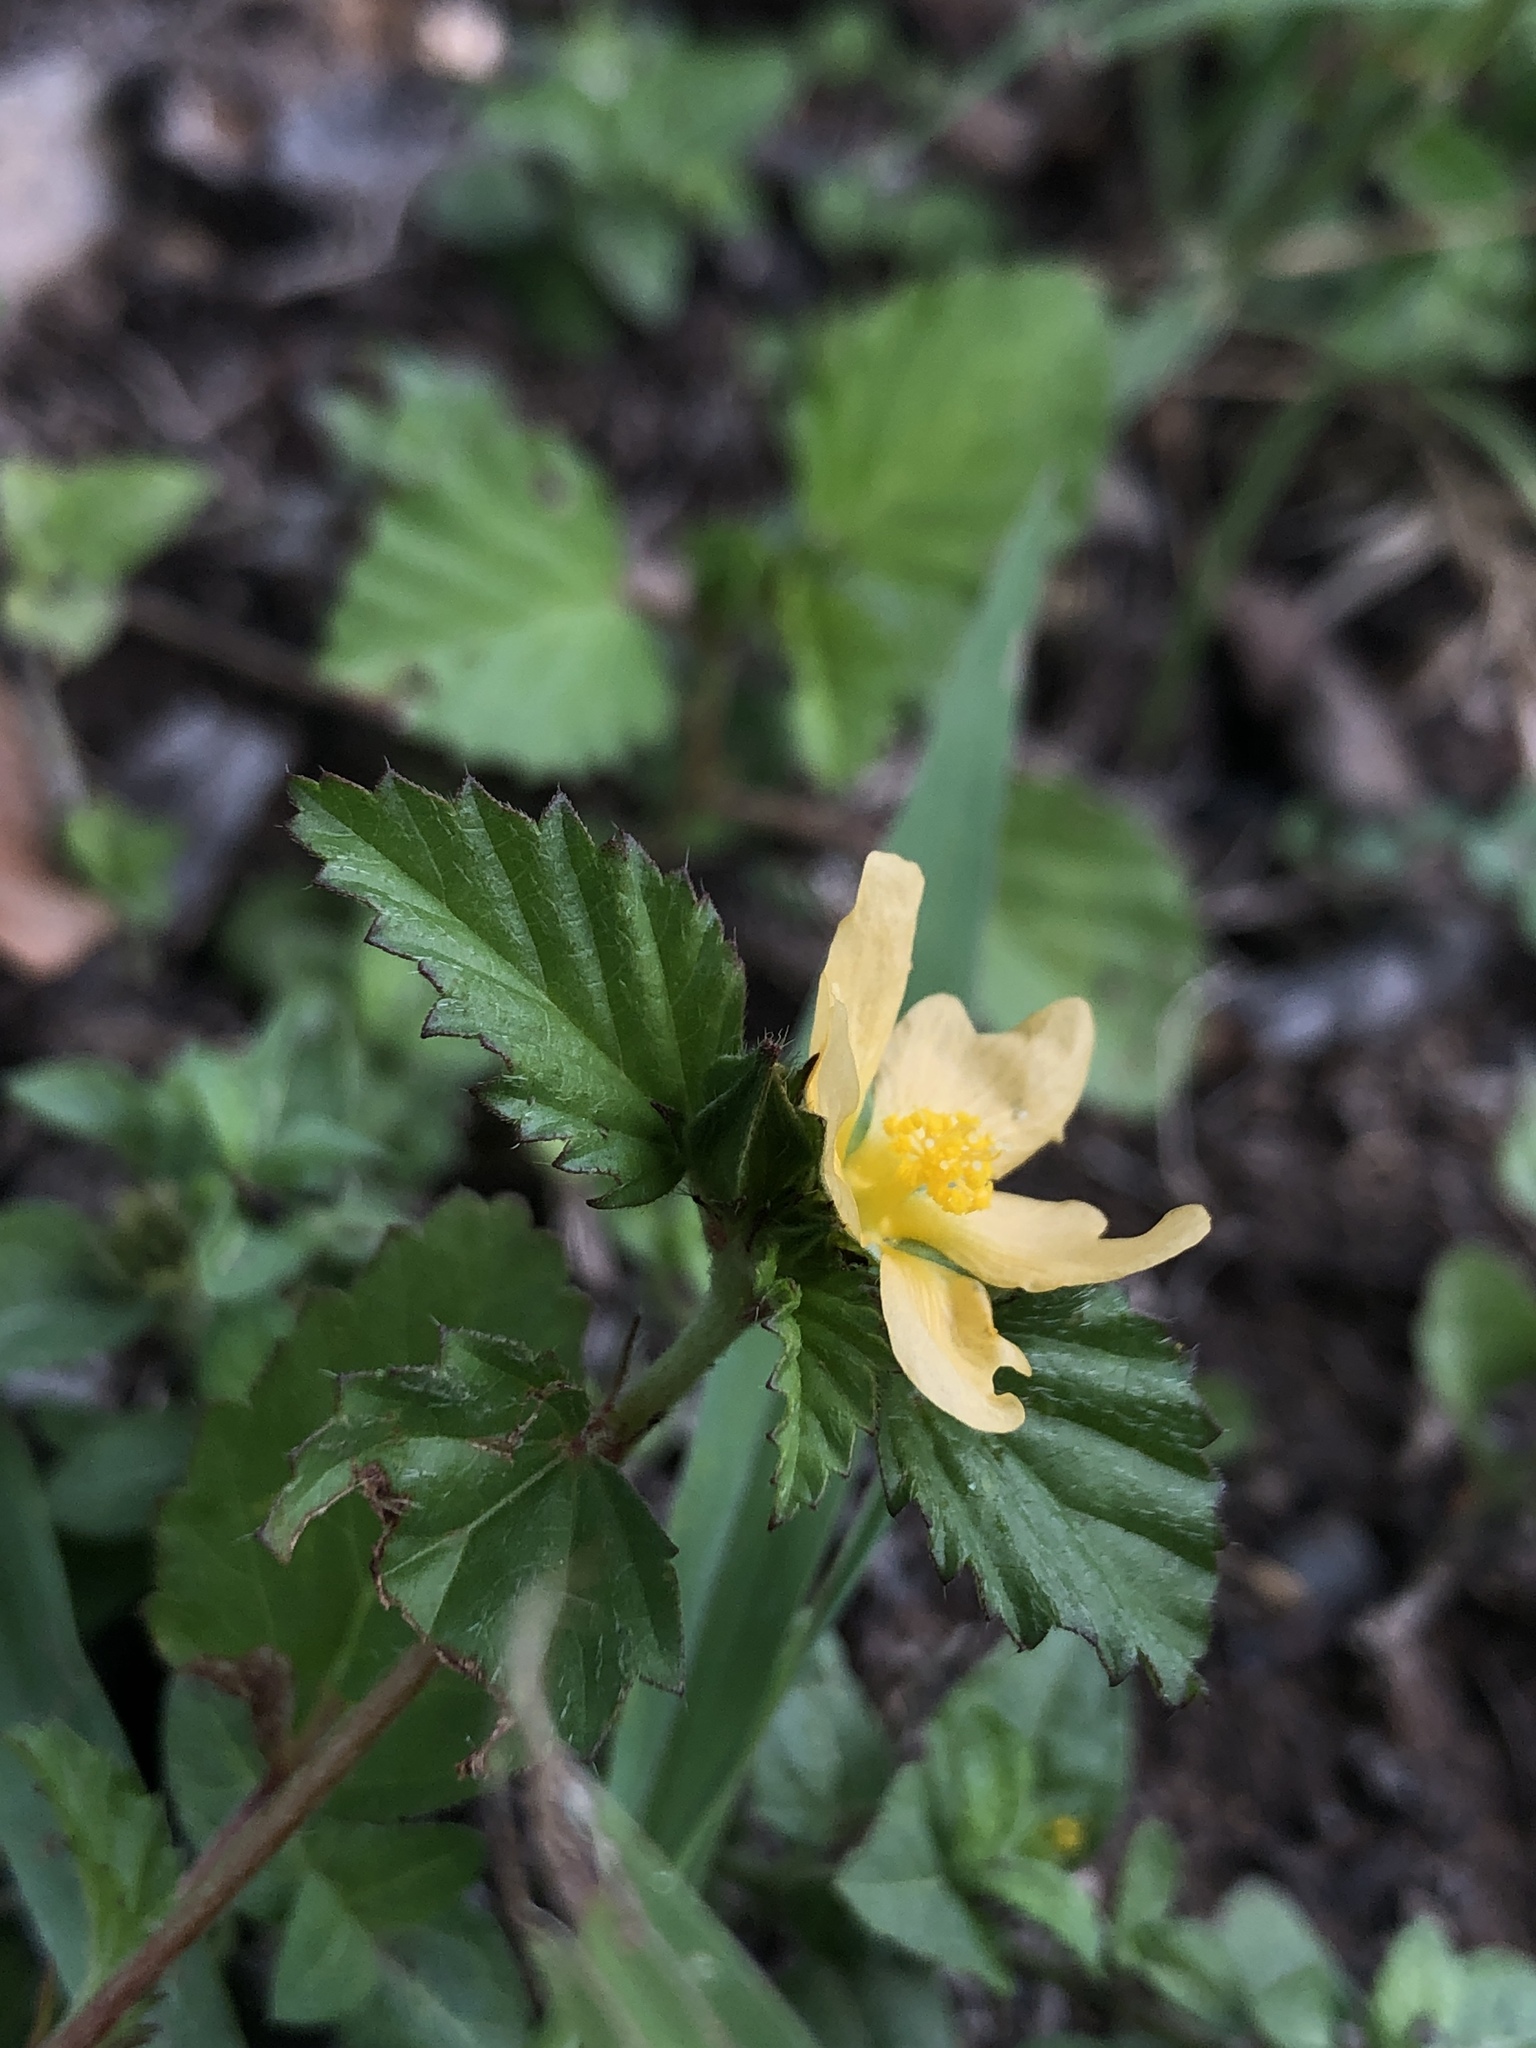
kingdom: Plantae
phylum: Tracheophyta
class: Magnoliopsida
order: Malvales
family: Malvaceae
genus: Malvastrum
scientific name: Malvastrum coromandelianum
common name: Threelobe false mallow
